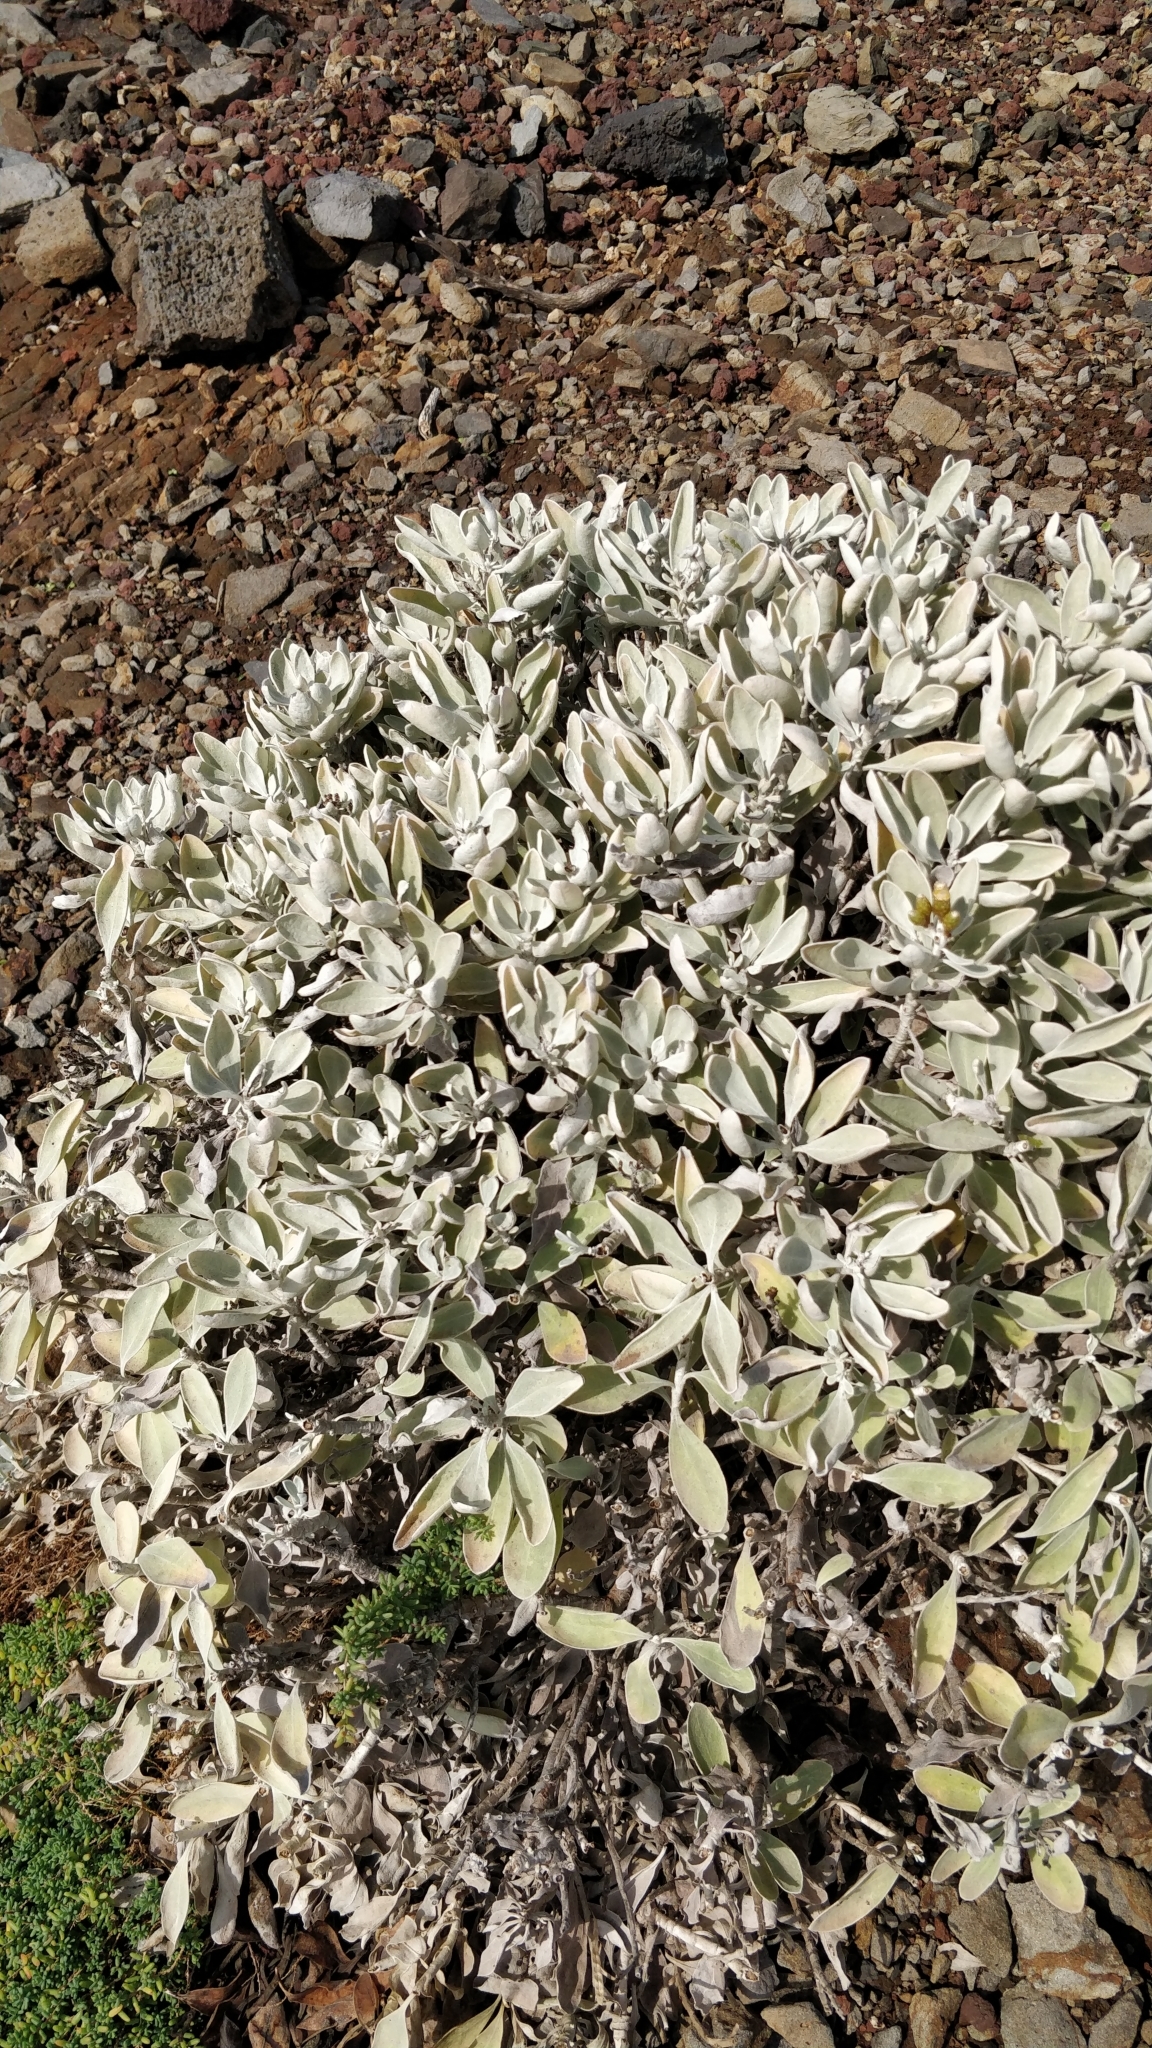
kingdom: Plantae
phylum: Tracheophyta
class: Magnoliopsida
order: Asterales
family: Asteraceae
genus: Helichrysum
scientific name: Helichrysum obconicum
